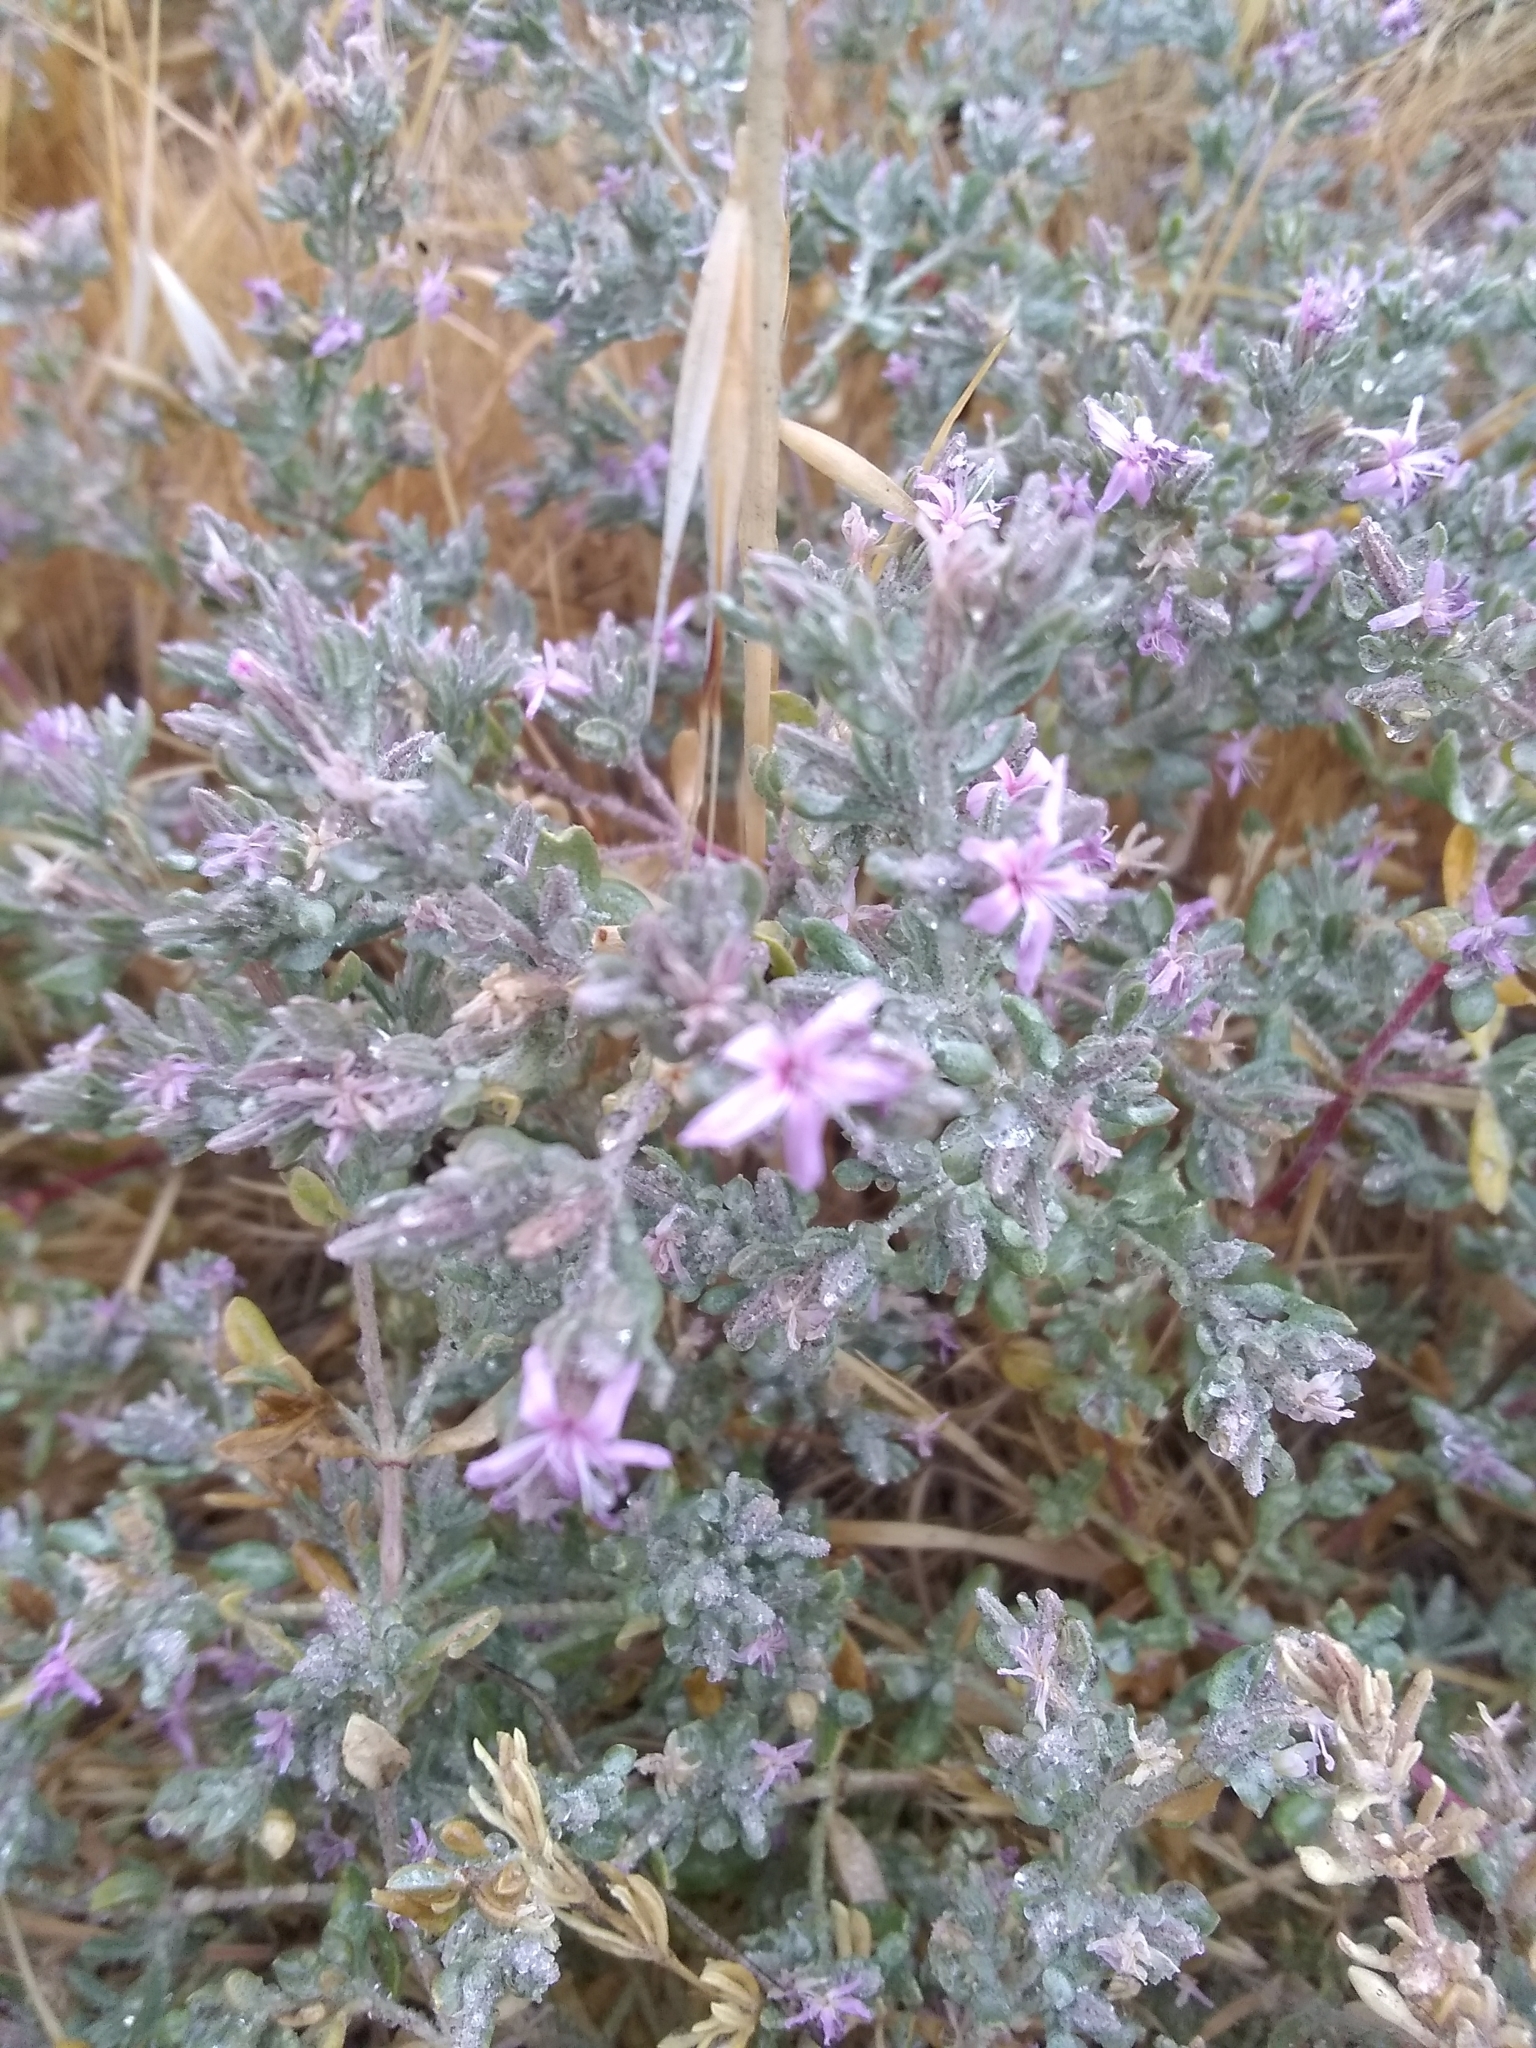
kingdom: Plantae
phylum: Tracheophyta
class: Magnoliopsida
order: Caryophyllales
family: Frankeniaceae
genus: Frankenia
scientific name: Frankenia salina
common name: Alkali seaheath
